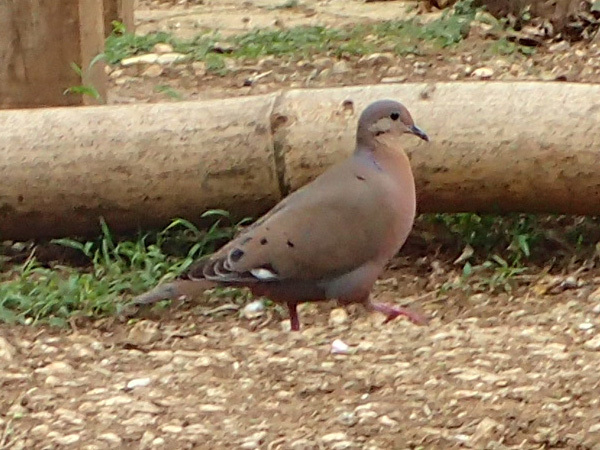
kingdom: Animalia
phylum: Chordata
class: Aves
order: Columbiformes
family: Columbidae
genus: Zenaida
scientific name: Zenaida aurita
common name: Zenaida dove
